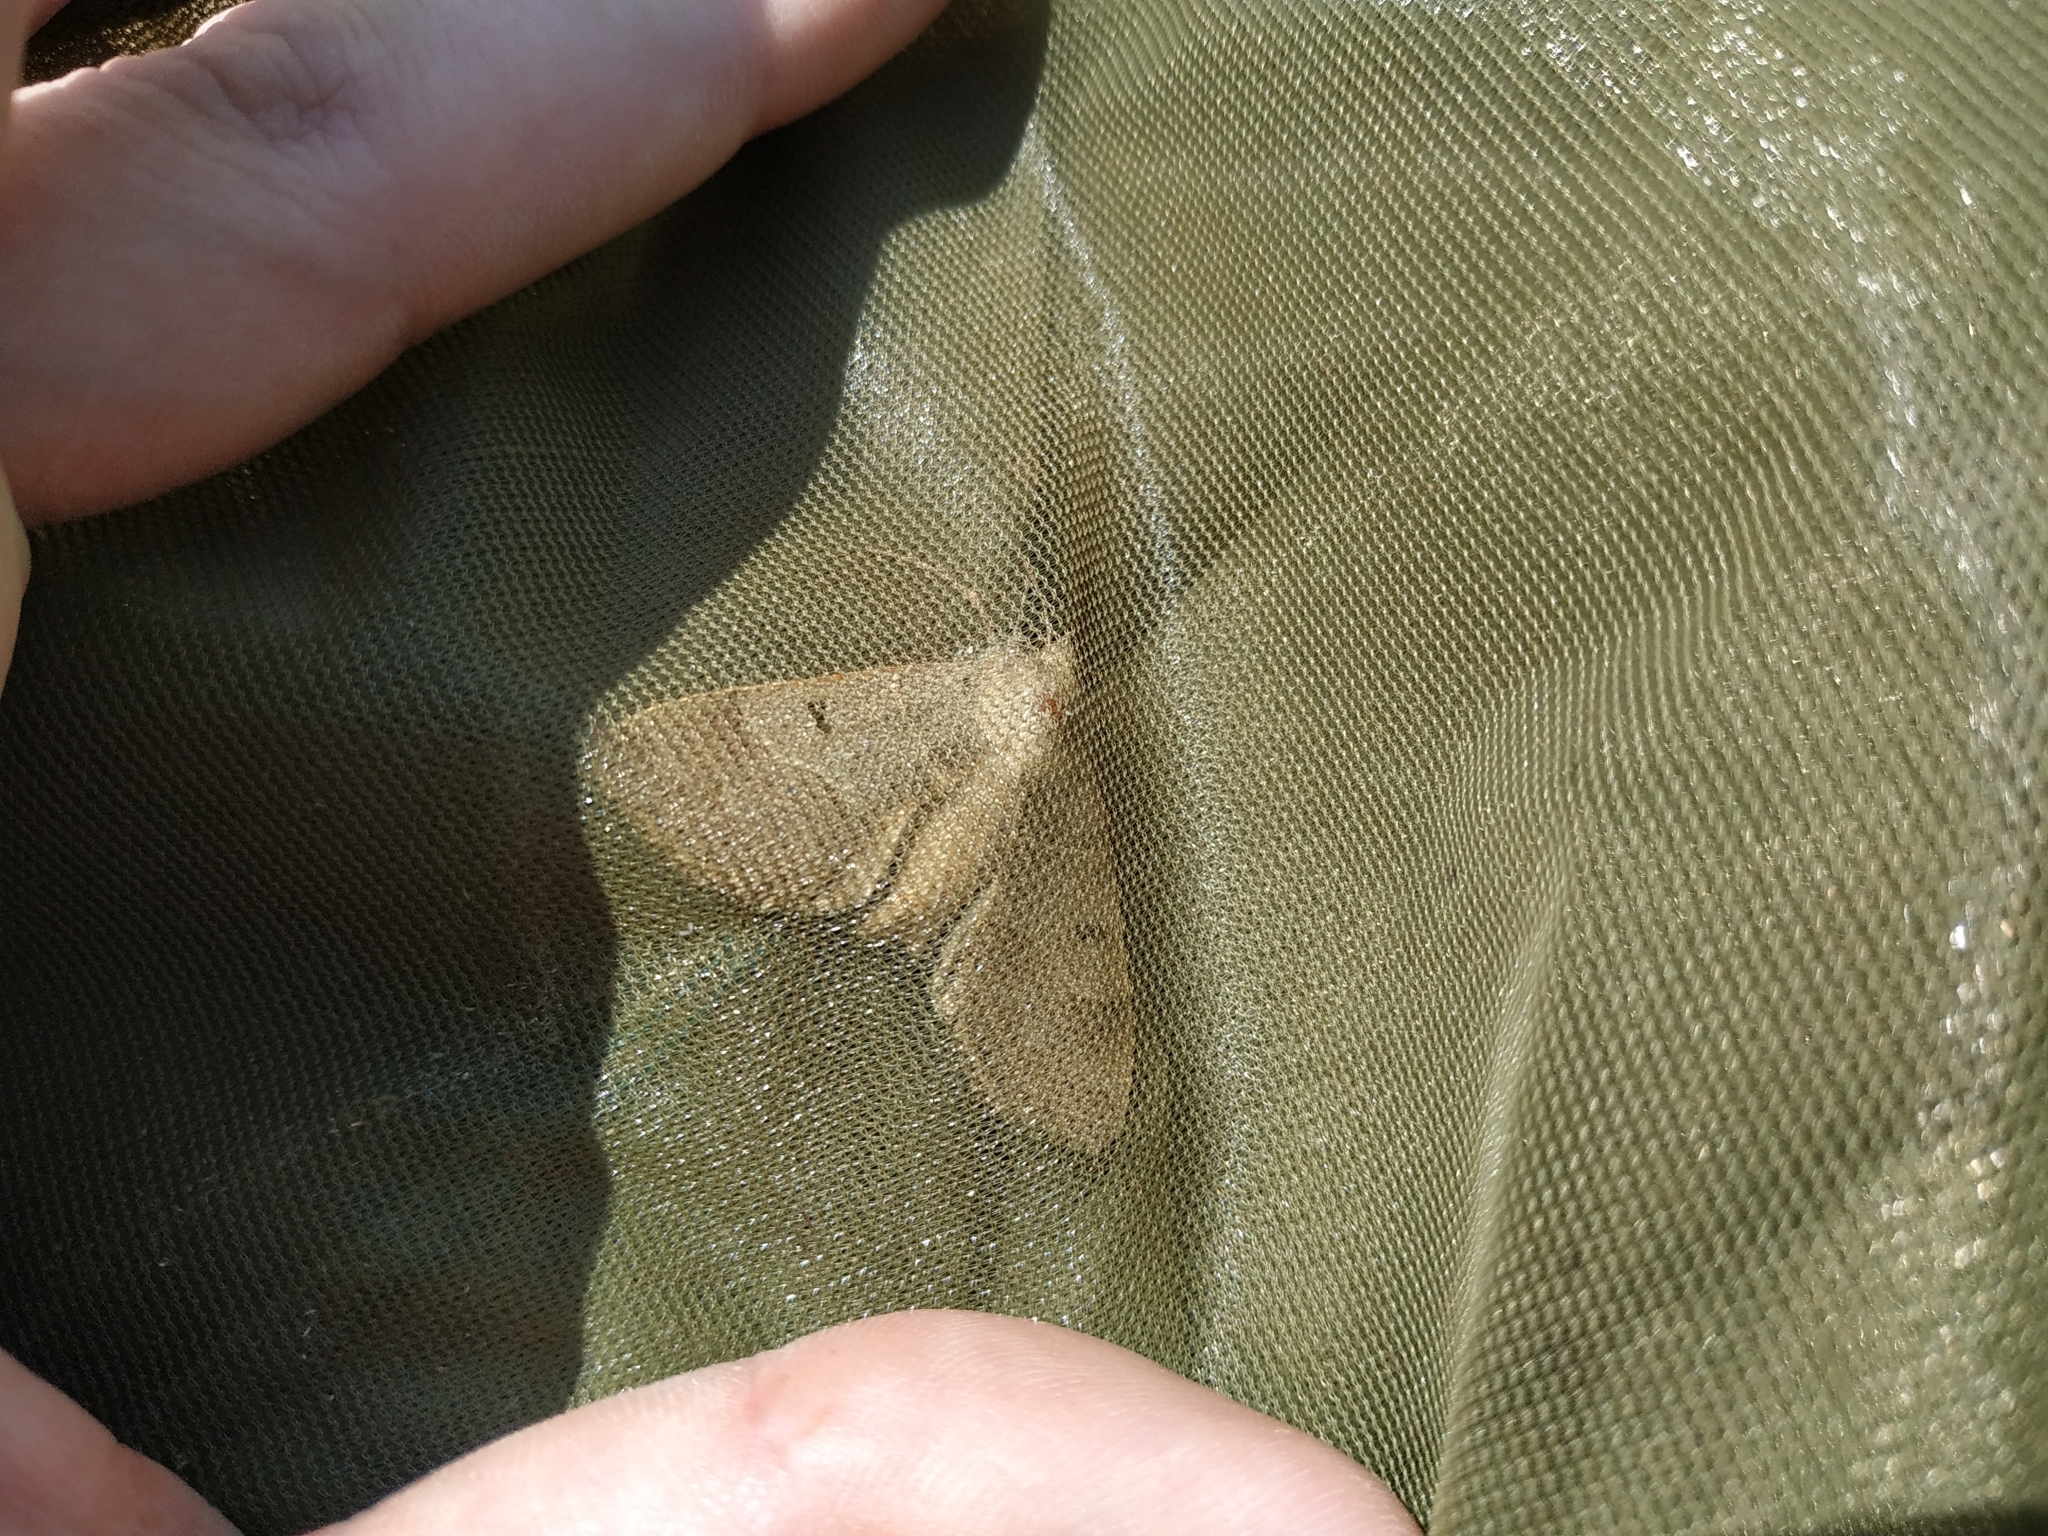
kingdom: Animalia
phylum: Arthropoda
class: Insecta
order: Lepidoptera
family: Erebidae
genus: Minucia
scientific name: Minucia lunaris
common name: Lunar double-stripe
